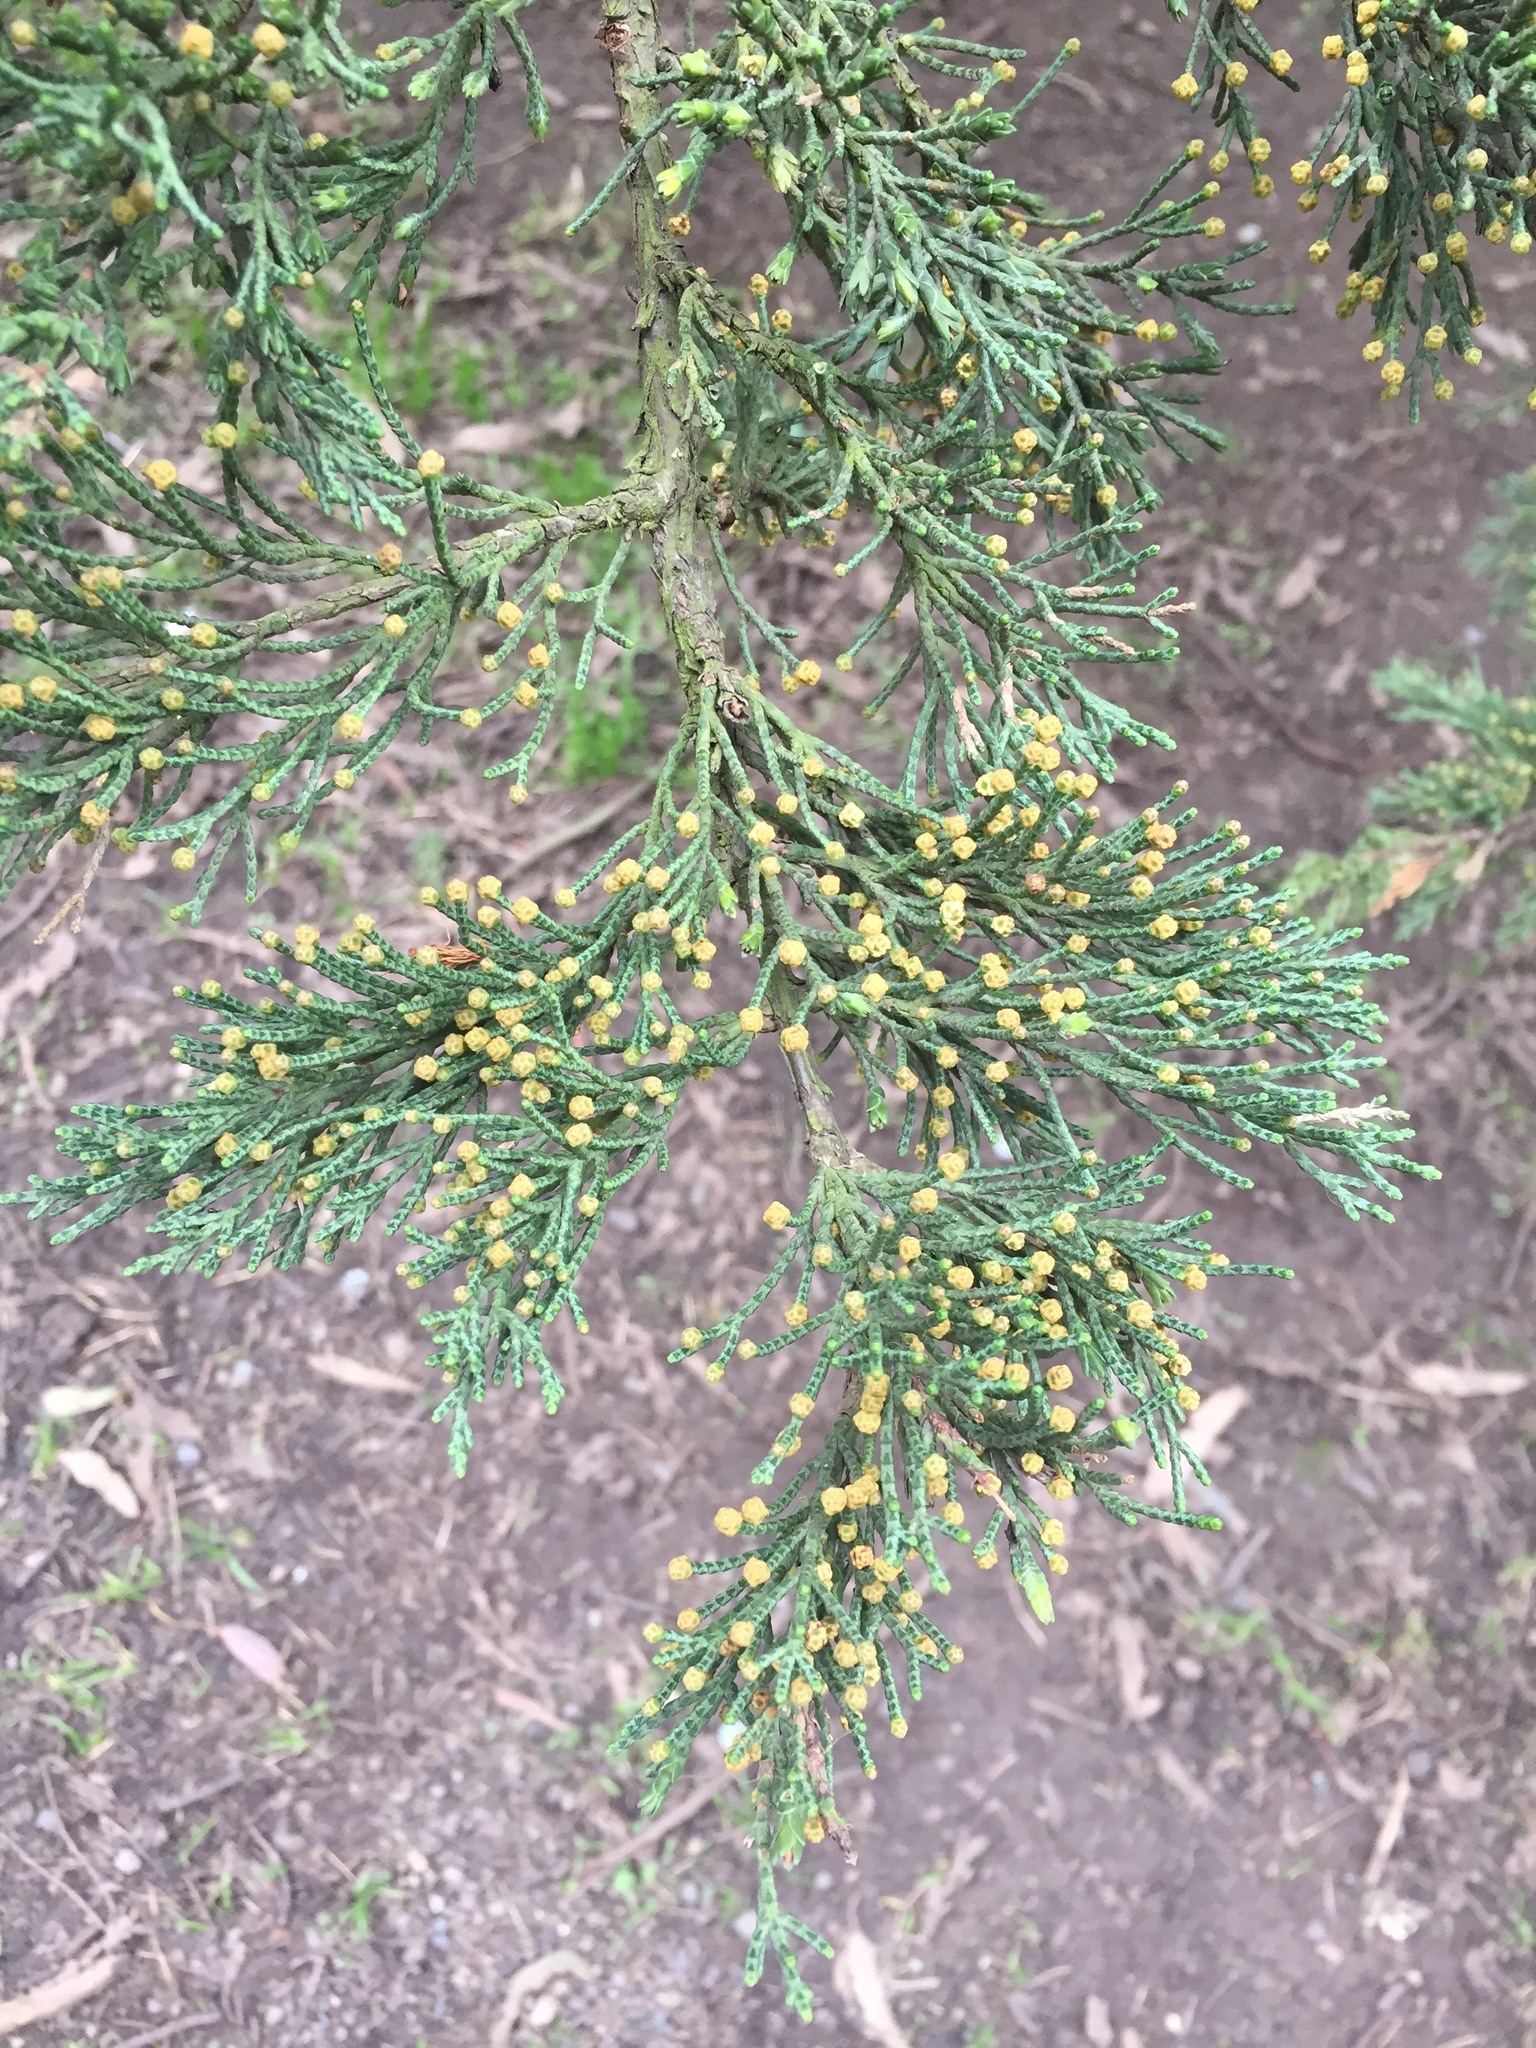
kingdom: Plantae
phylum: Tracheophyta
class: Pinopsida
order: Pinales
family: Cupressaceae
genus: Cupressus
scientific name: Cupressus macrocarpa
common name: Monterey cypress
